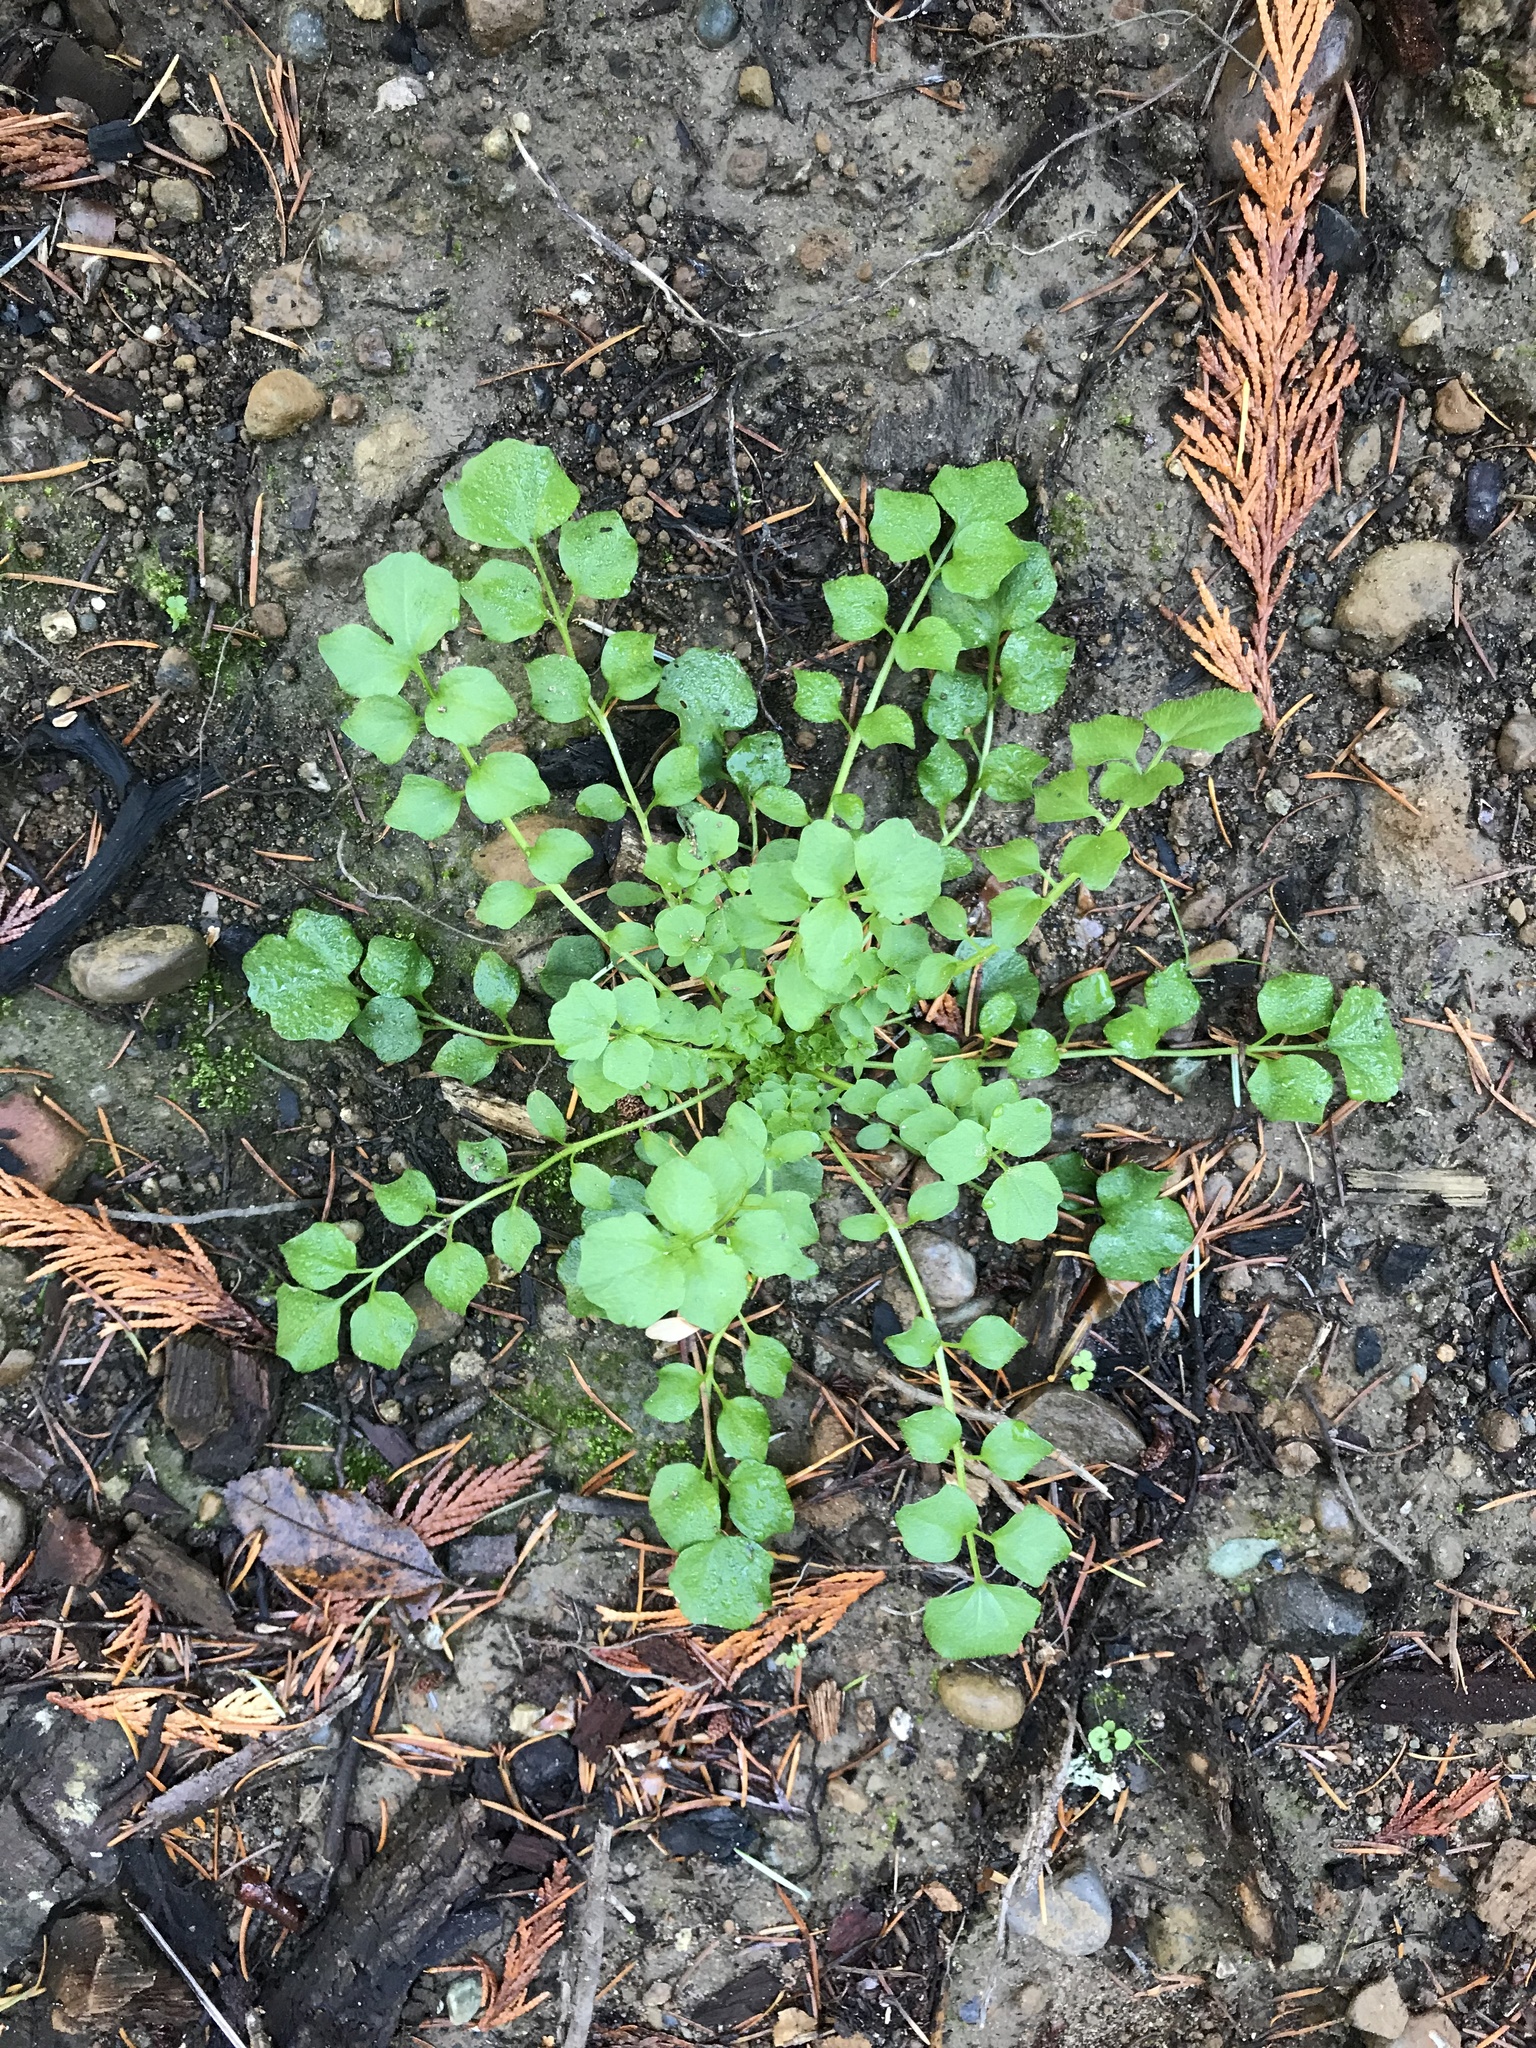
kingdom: Plantae
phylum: Tracheophyta
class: Magnoliopsida
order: Brassicales
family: Brassicaceae
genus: Cardamine
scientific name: Cardamine hirsuta
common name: Hairy bittercress
